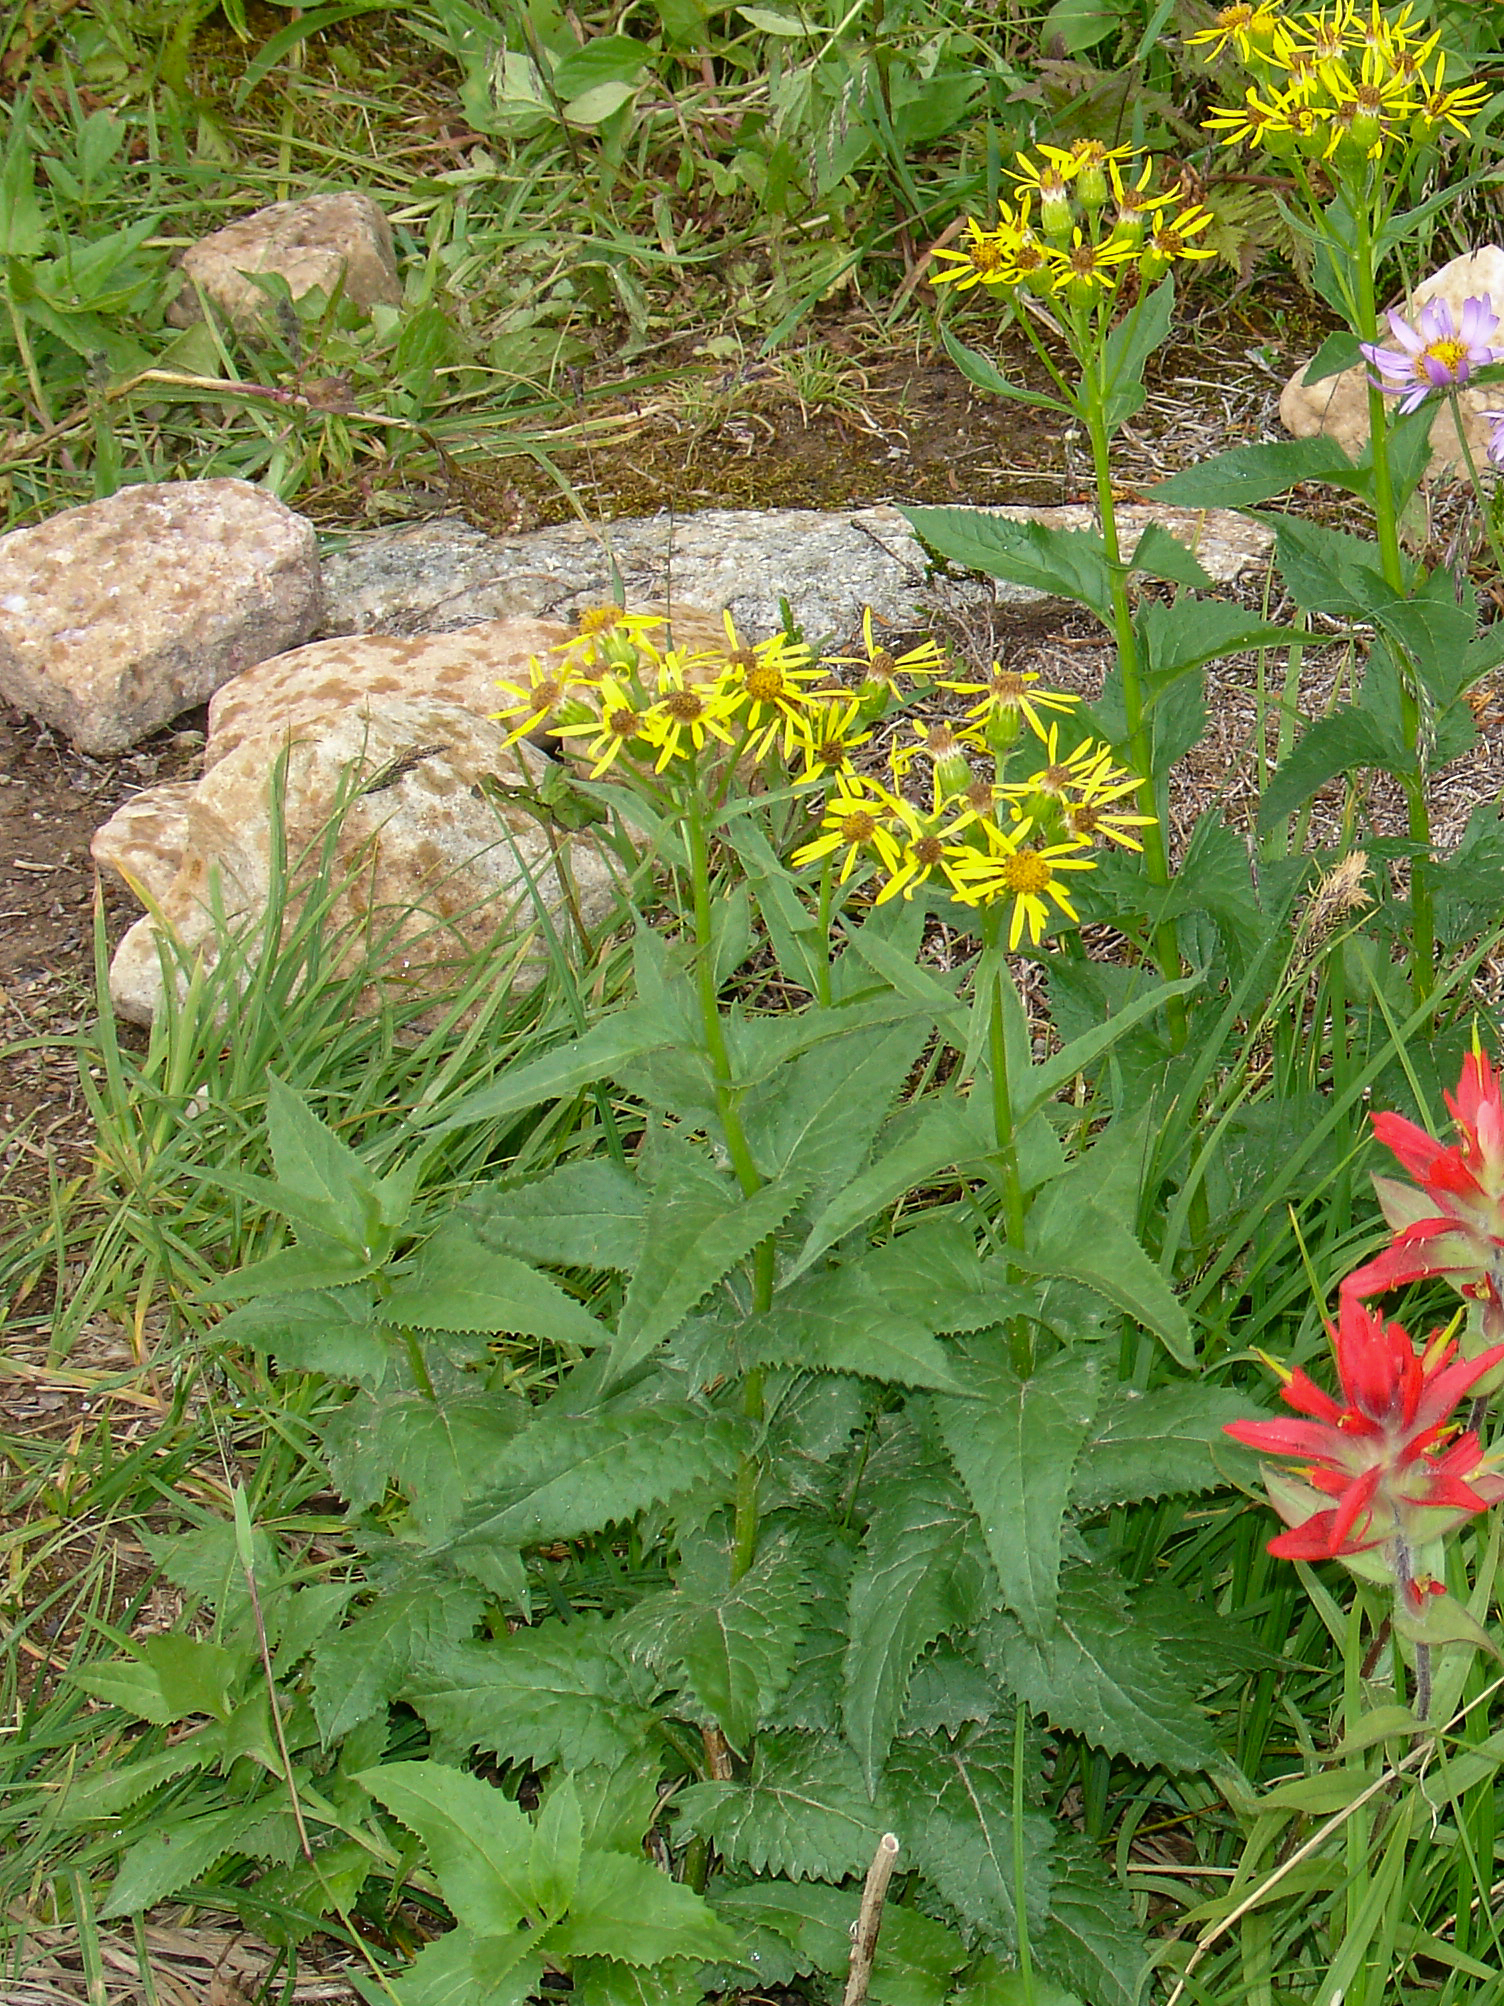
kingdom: Plantae
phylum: Tracheophyta
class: Magnoliopsida
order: Asterales
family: Asteraceae
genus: Senecio
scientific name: Senecio triangularis
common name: Arrowleaf butterweed
